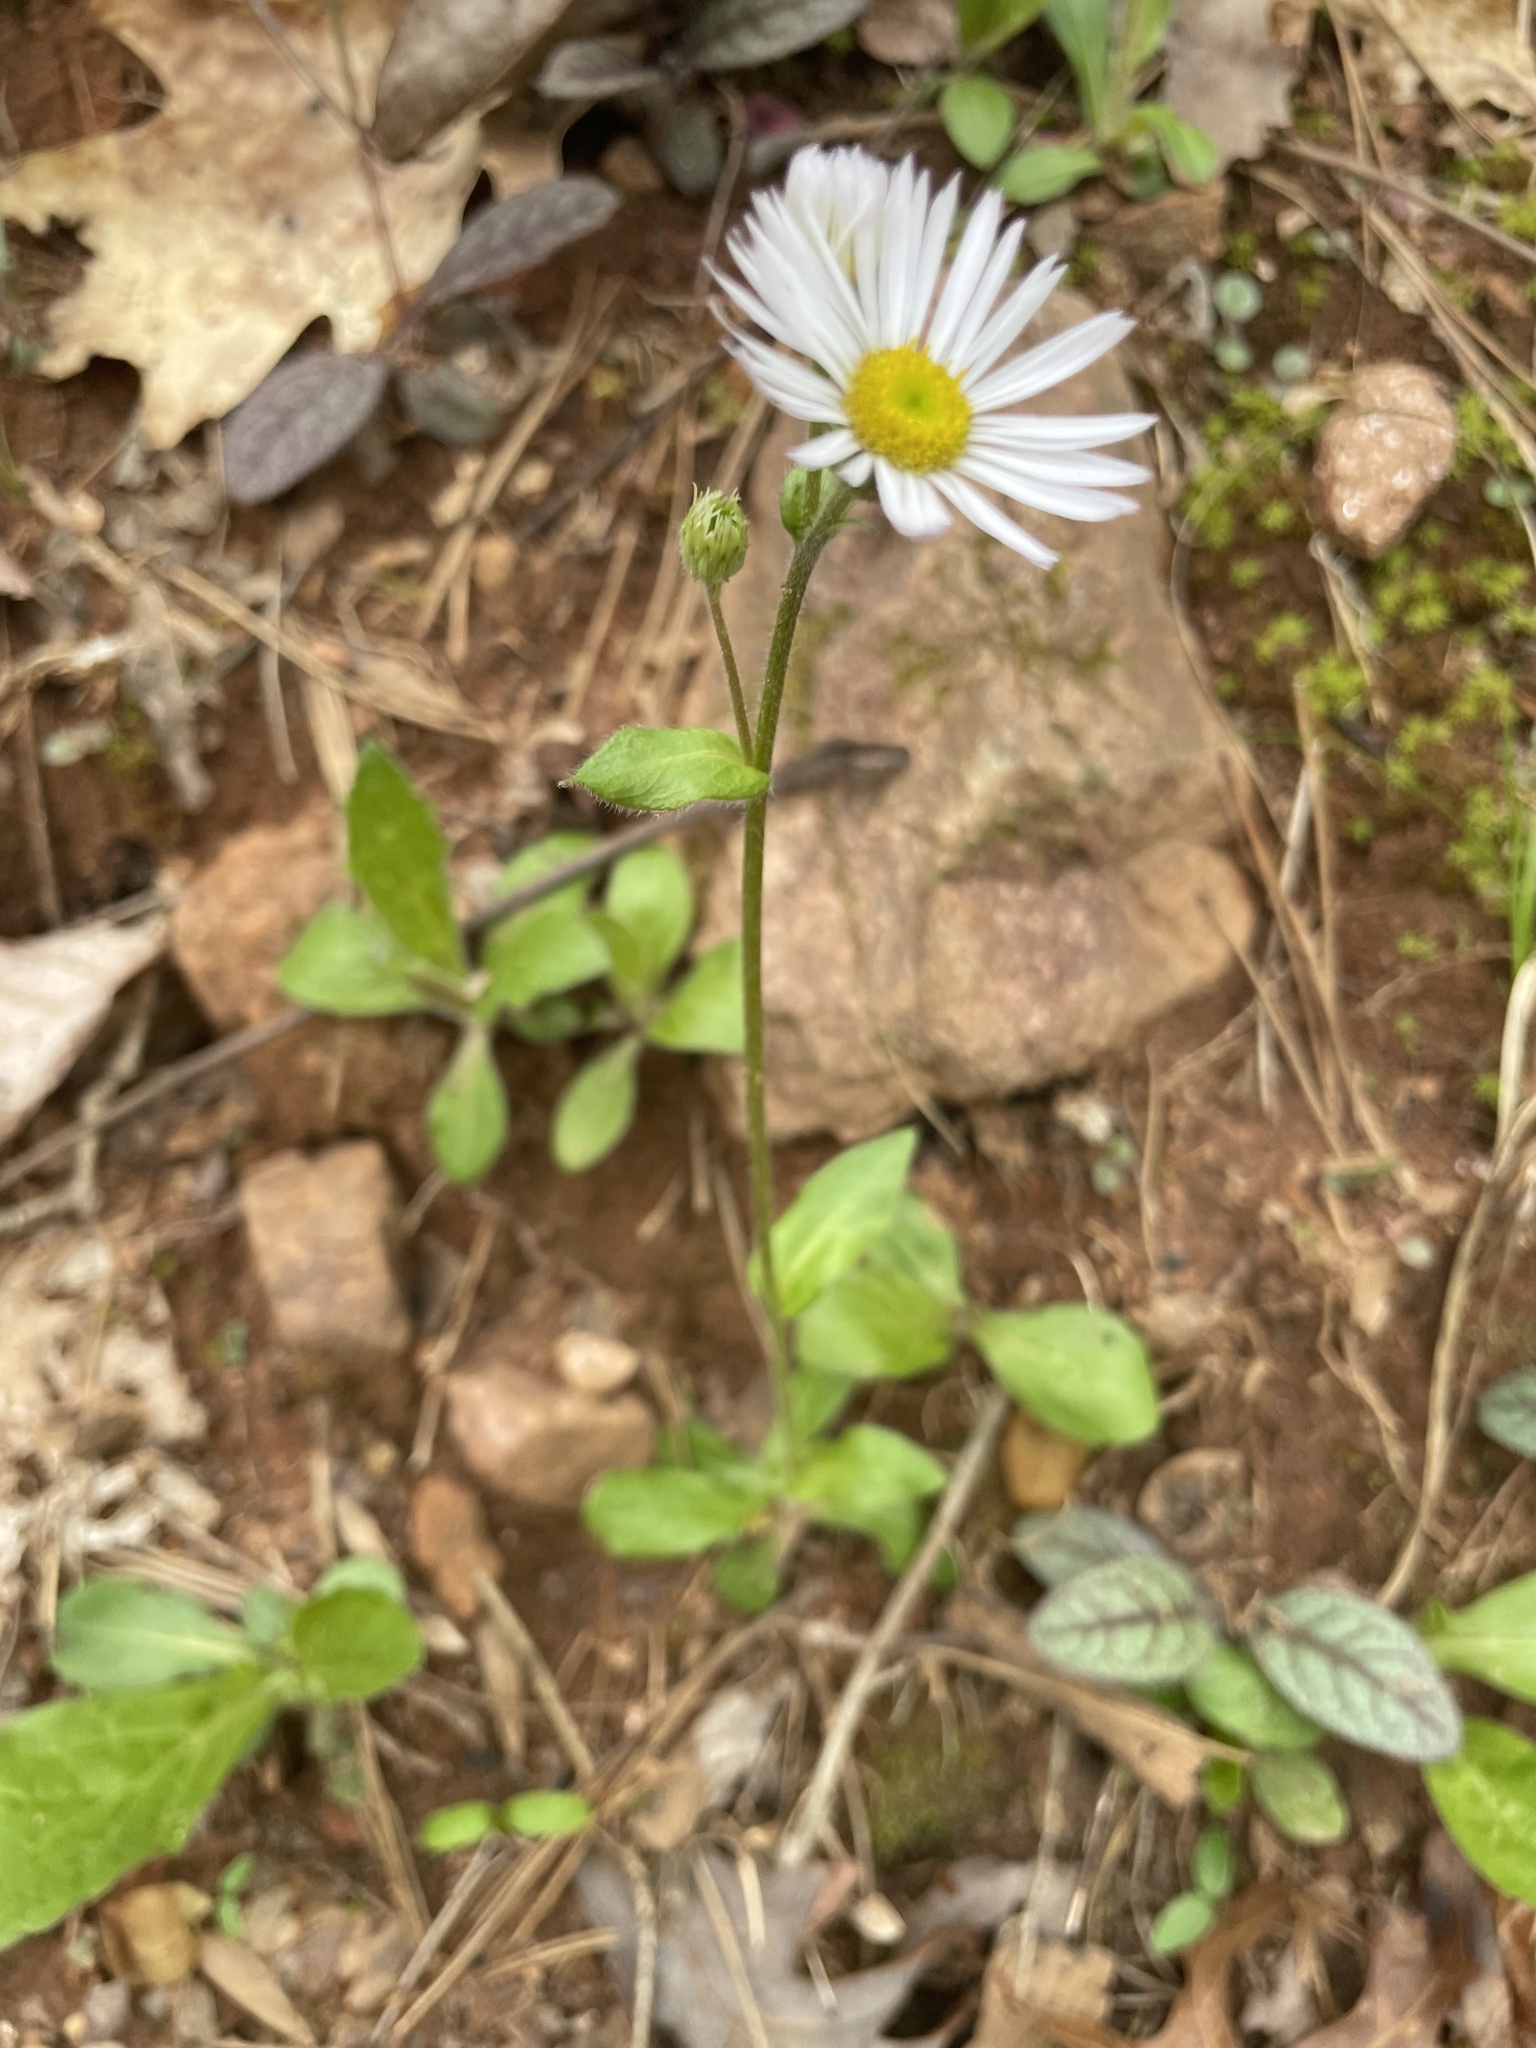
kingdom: Plantae
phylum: Tracheophyta
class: Magnoliopsida
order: Asterales
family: Asteraceae
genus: Erigeron
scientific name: Erigeron pulchellus
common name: Hairy fleabane
